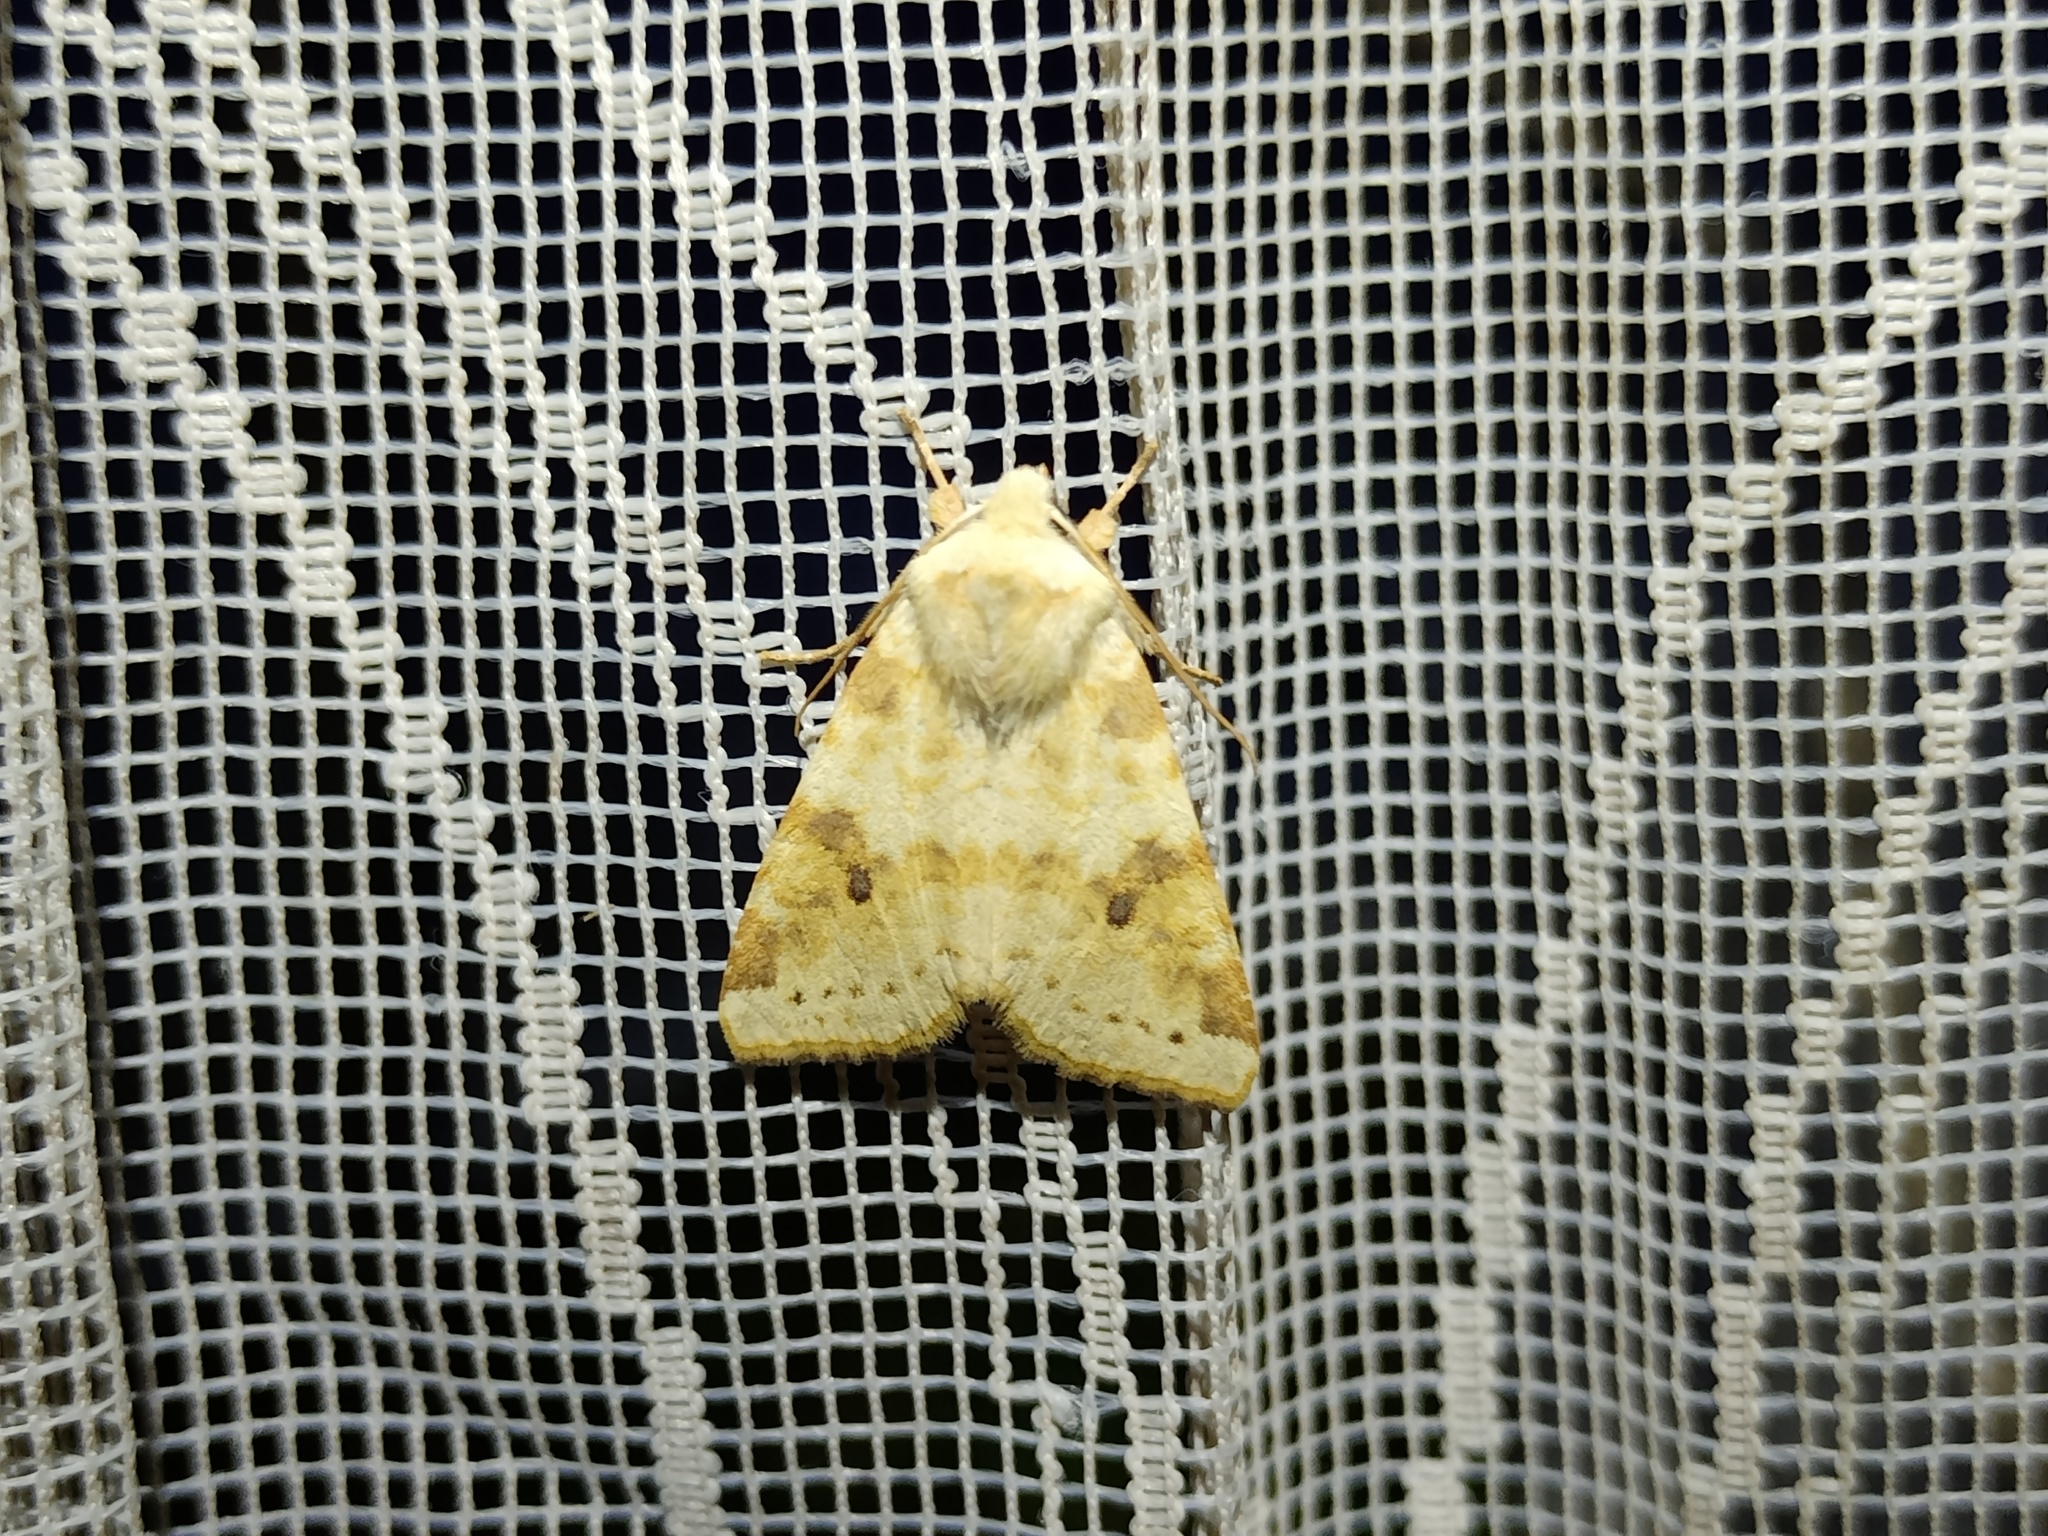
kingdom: Animalia
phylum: Arthropoda
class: Insecta
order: Lepidoptera
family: Noctuidae
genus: Xanthia
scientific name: Xanthia icteritia
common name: The sallow
